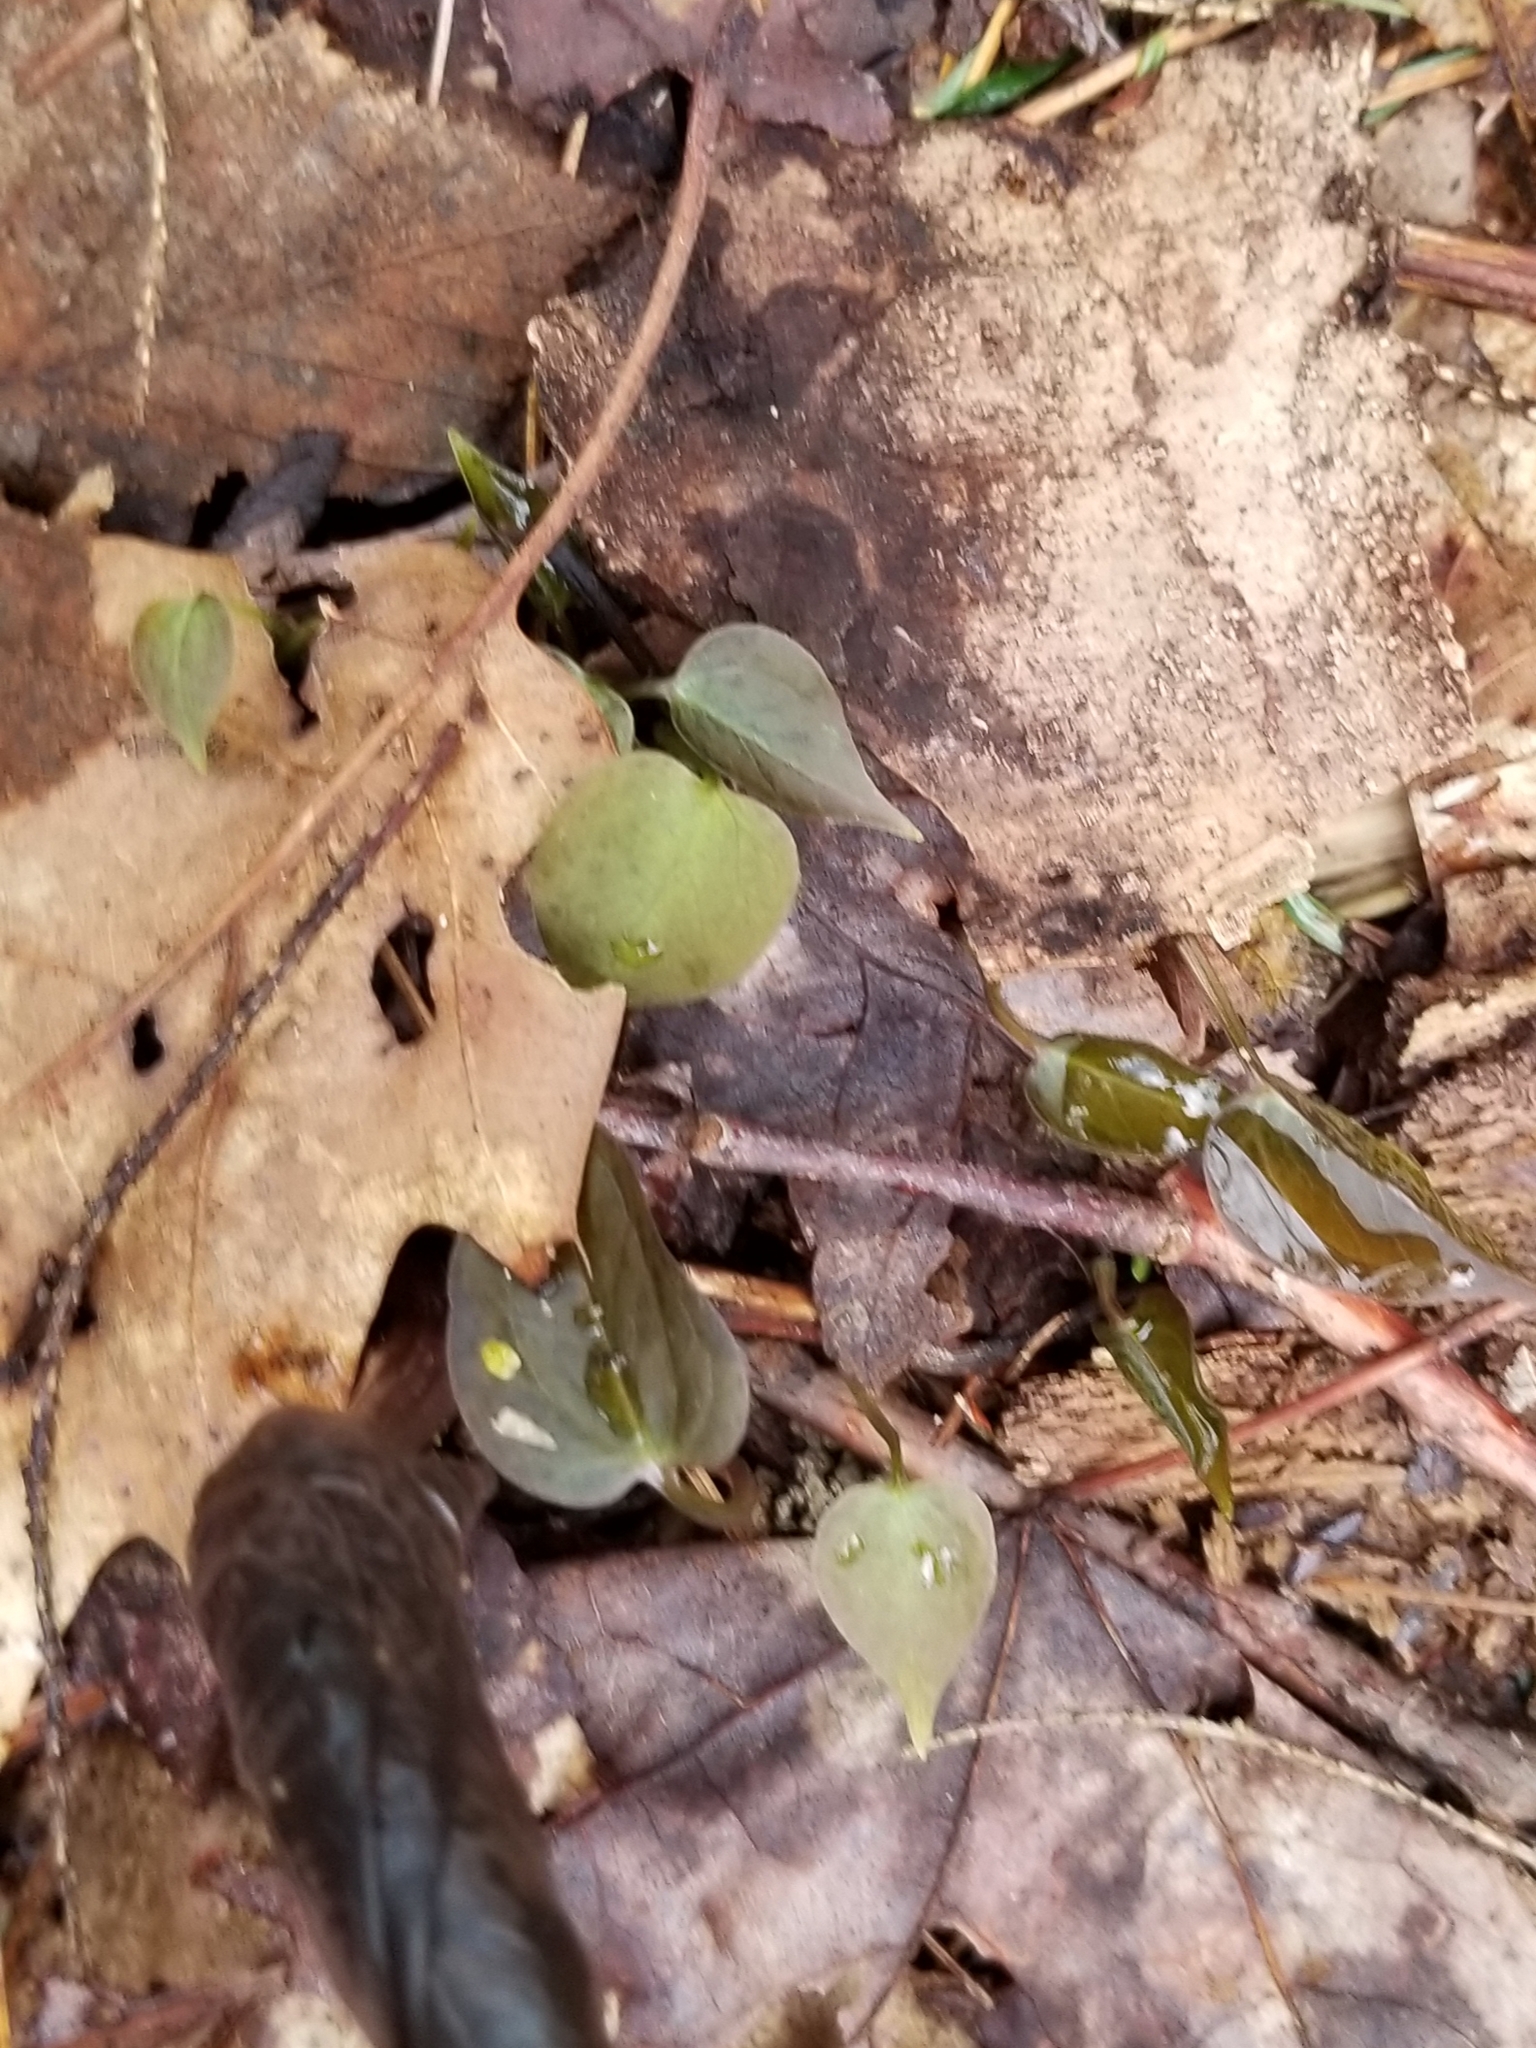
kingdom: Plantae
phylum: Tracheophyta
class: Liliopsida
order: Liliales
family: Melanthiaceae
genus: Trillium
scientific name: Trillium undulatum
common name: Paint trillium
